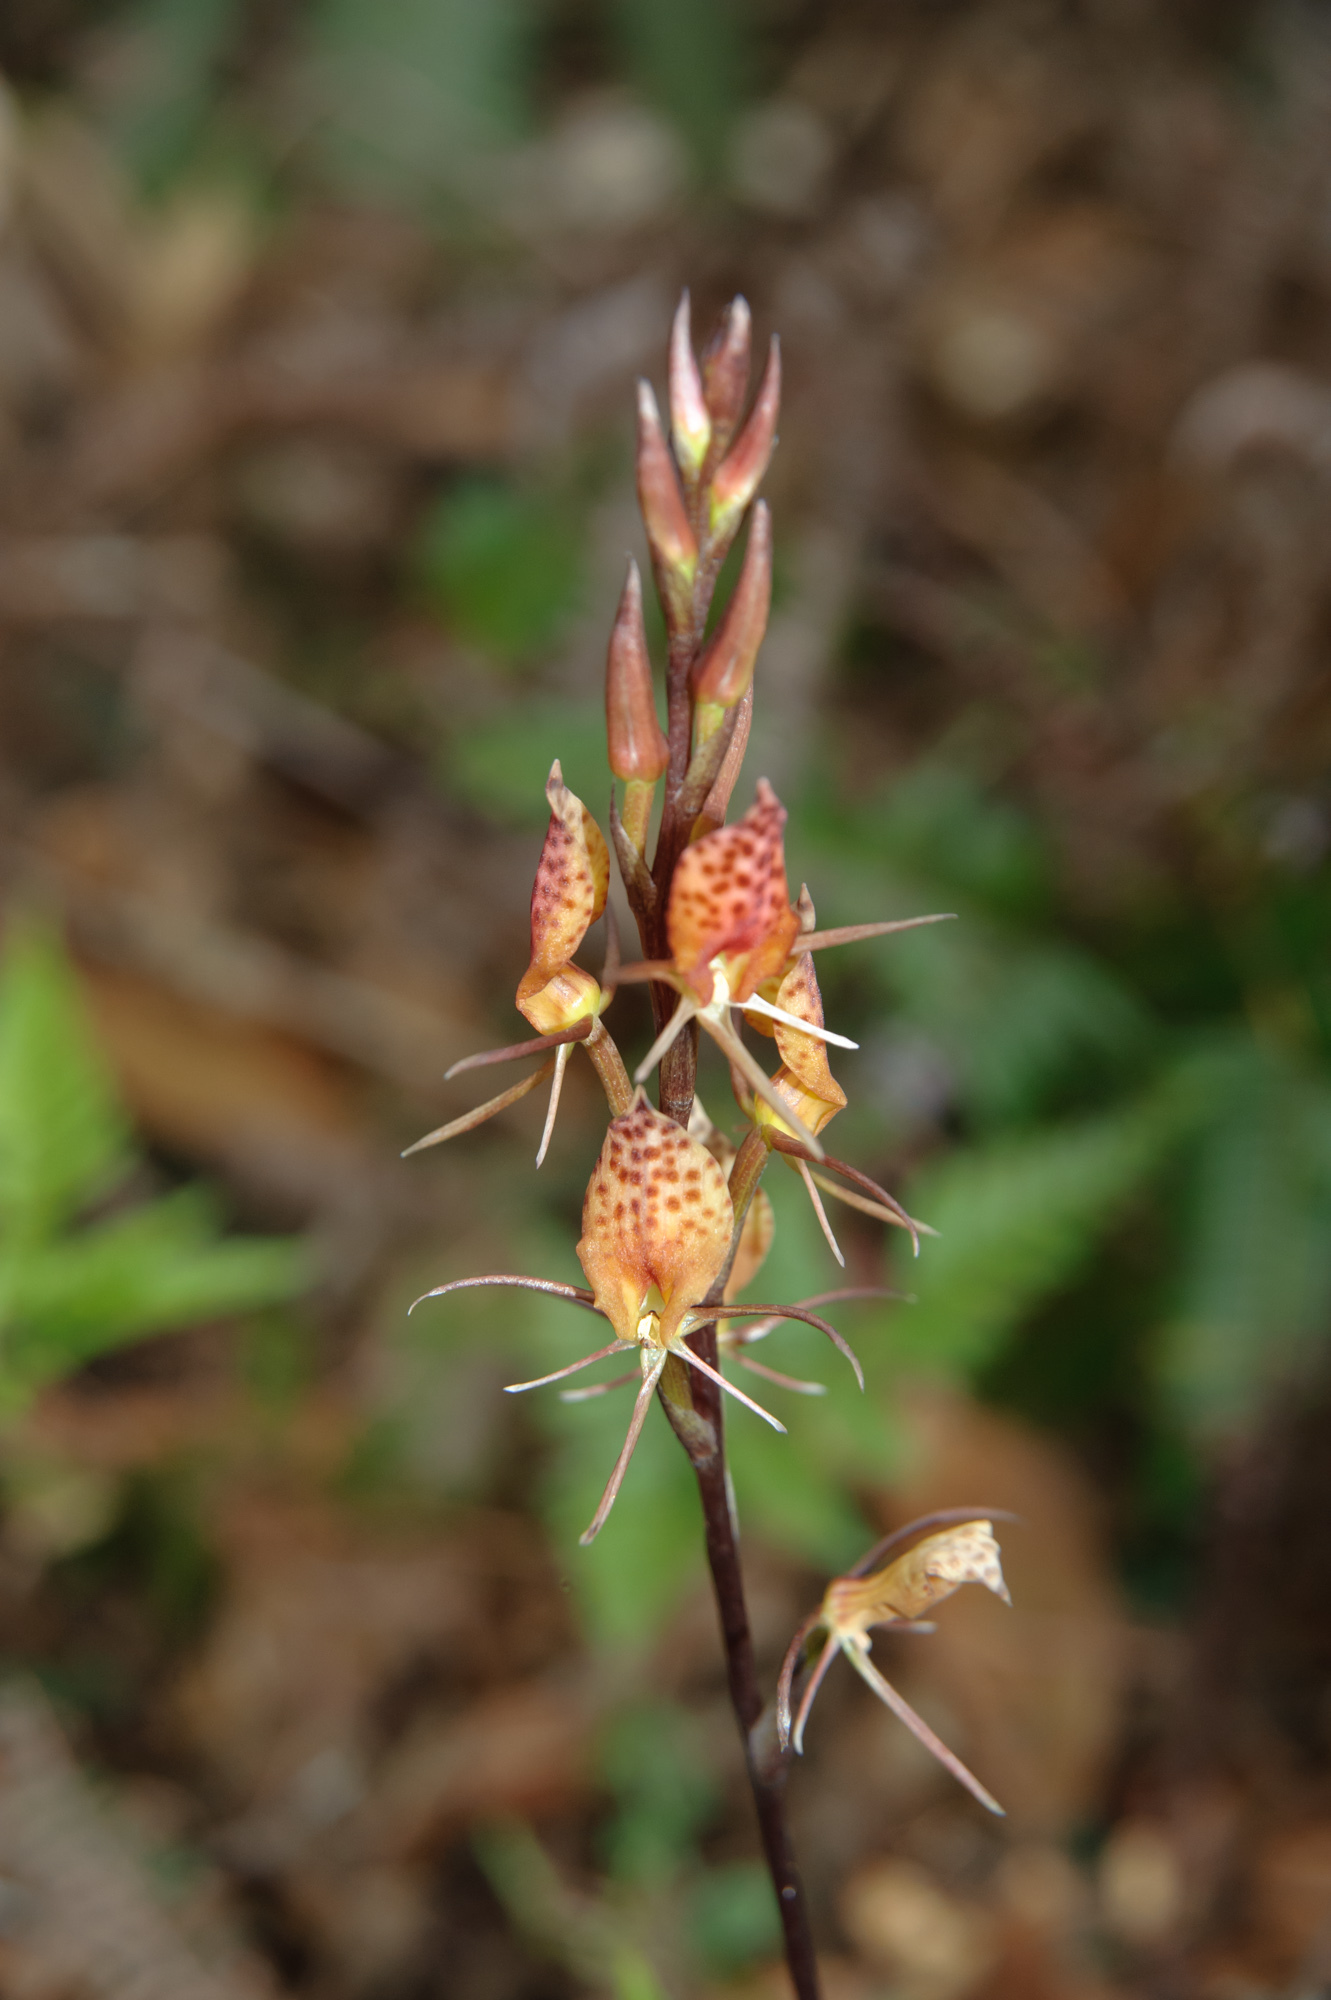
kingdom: Plantae
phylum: Tracheophyta
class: Liliopsida
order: Asparagales
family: Orchidaceae
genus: Cryptostylis
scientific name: Cryptostylis taiwaniana
